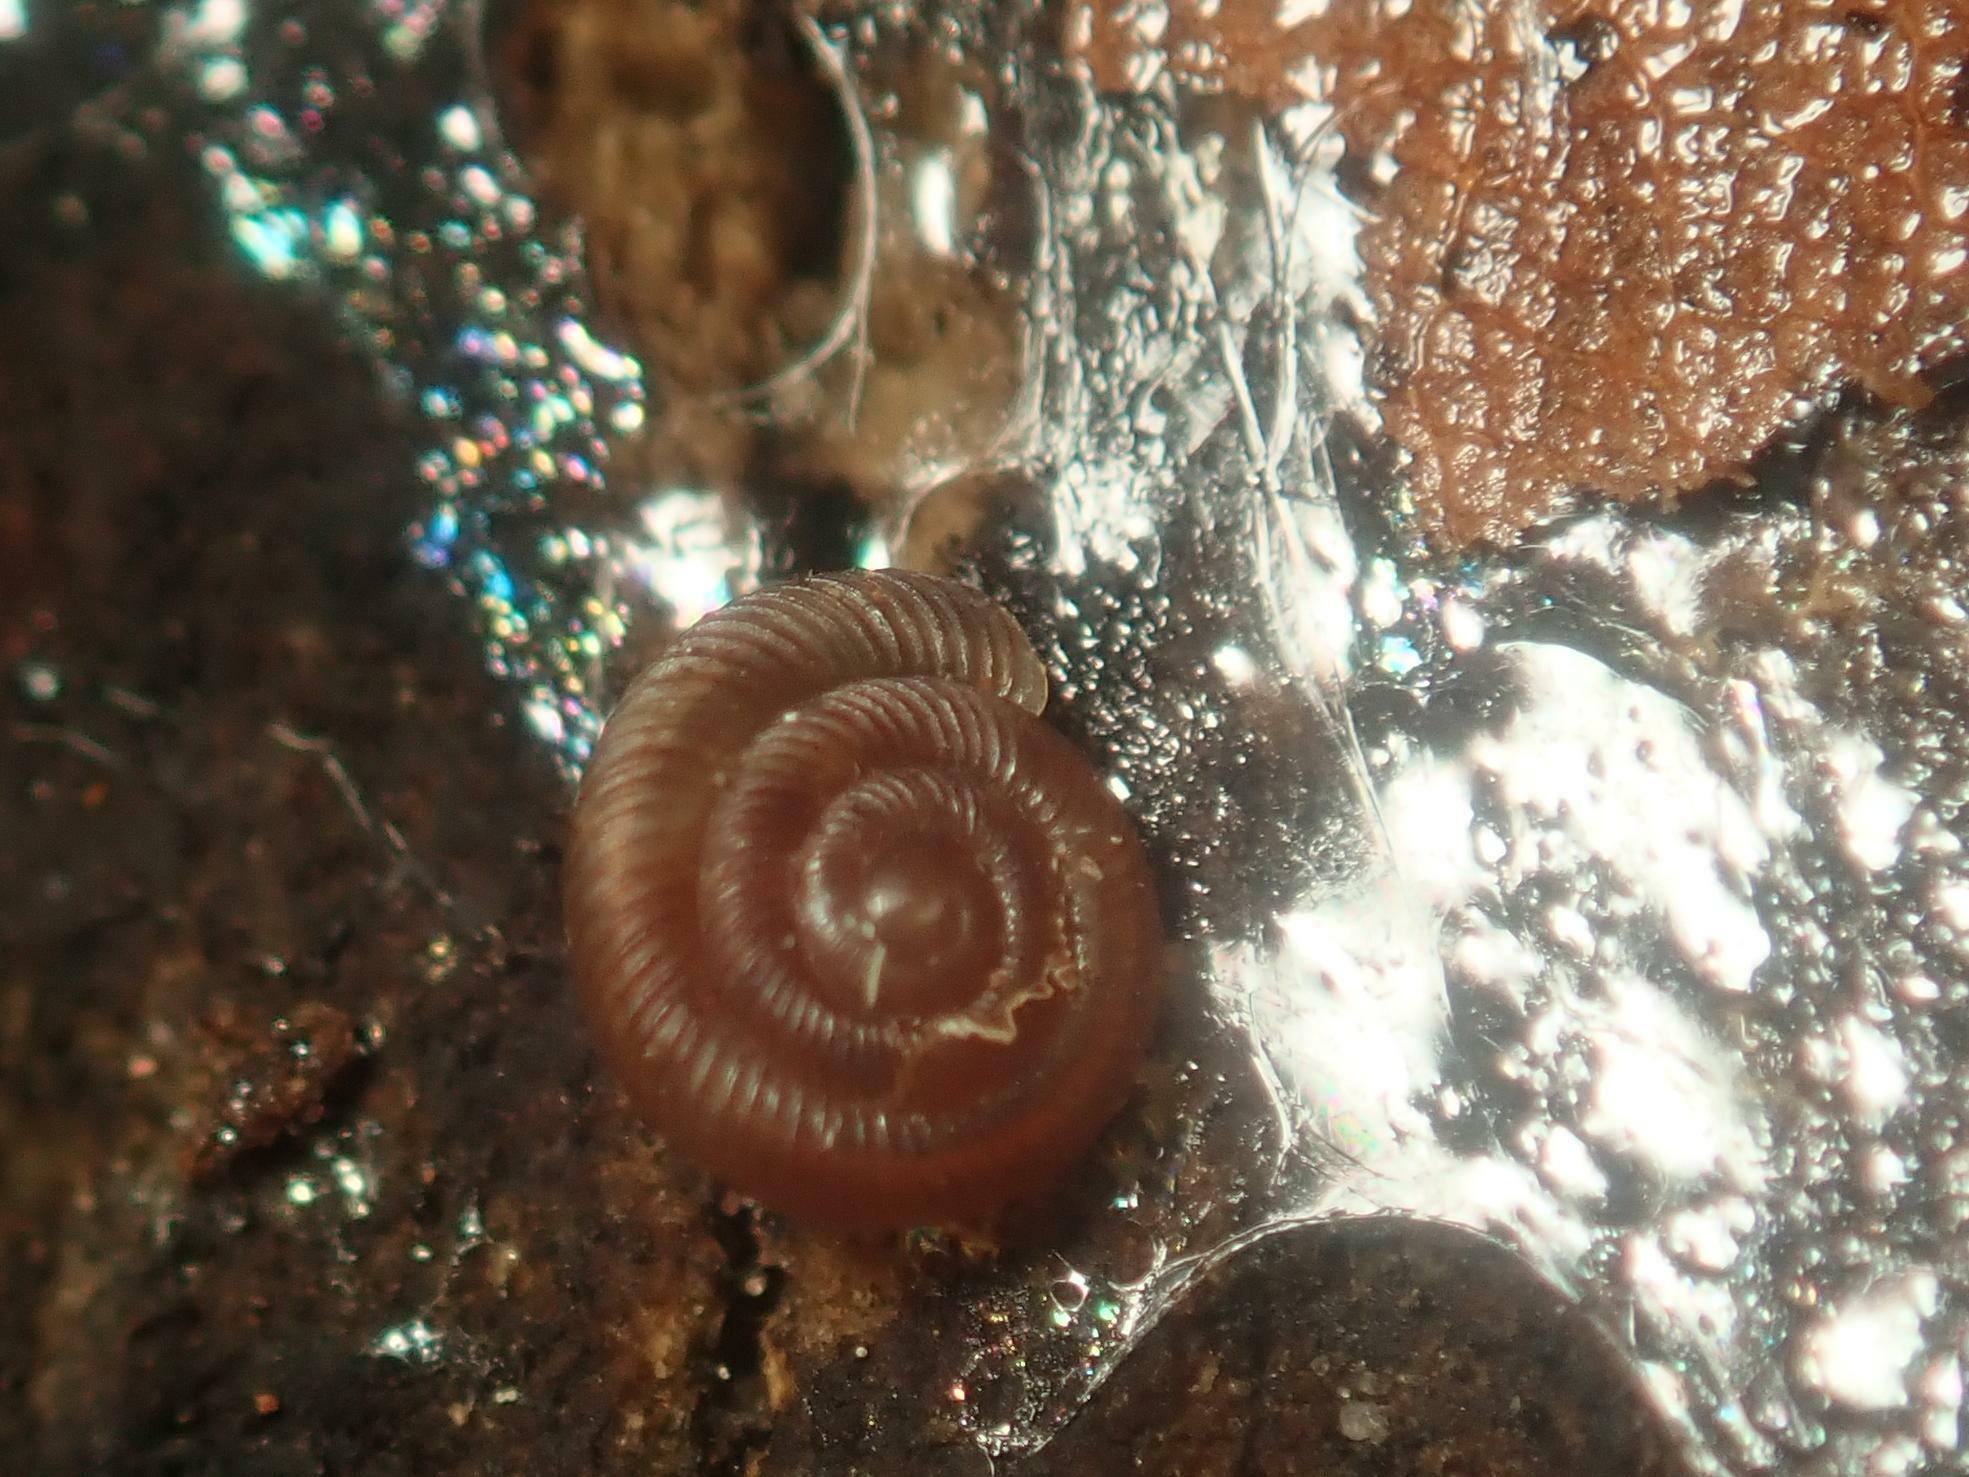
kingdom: Animalia
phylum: Mollusca
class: Gastropoda
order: Stylommatophora
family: Discidae
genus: Discus
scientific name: Discus rotundatus
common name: Rounded snail
